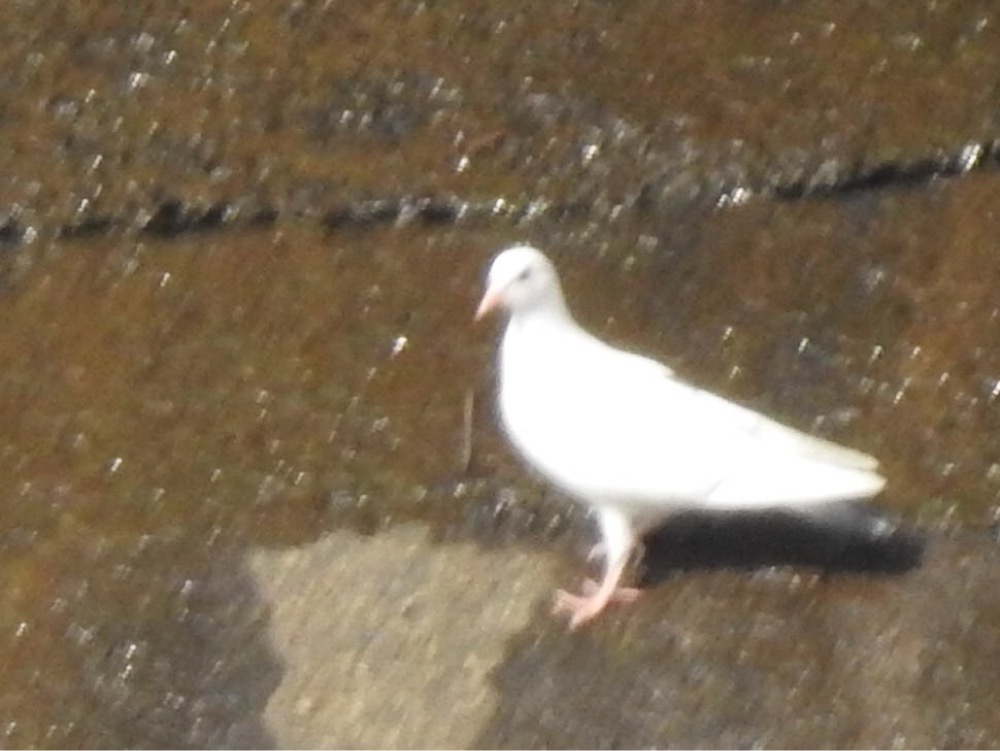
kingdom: Animalia
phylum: Chordata
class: Aves
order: Columbiformes
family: Columbidae
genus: Columba
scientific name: Columba livia
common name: Rock pigeon
